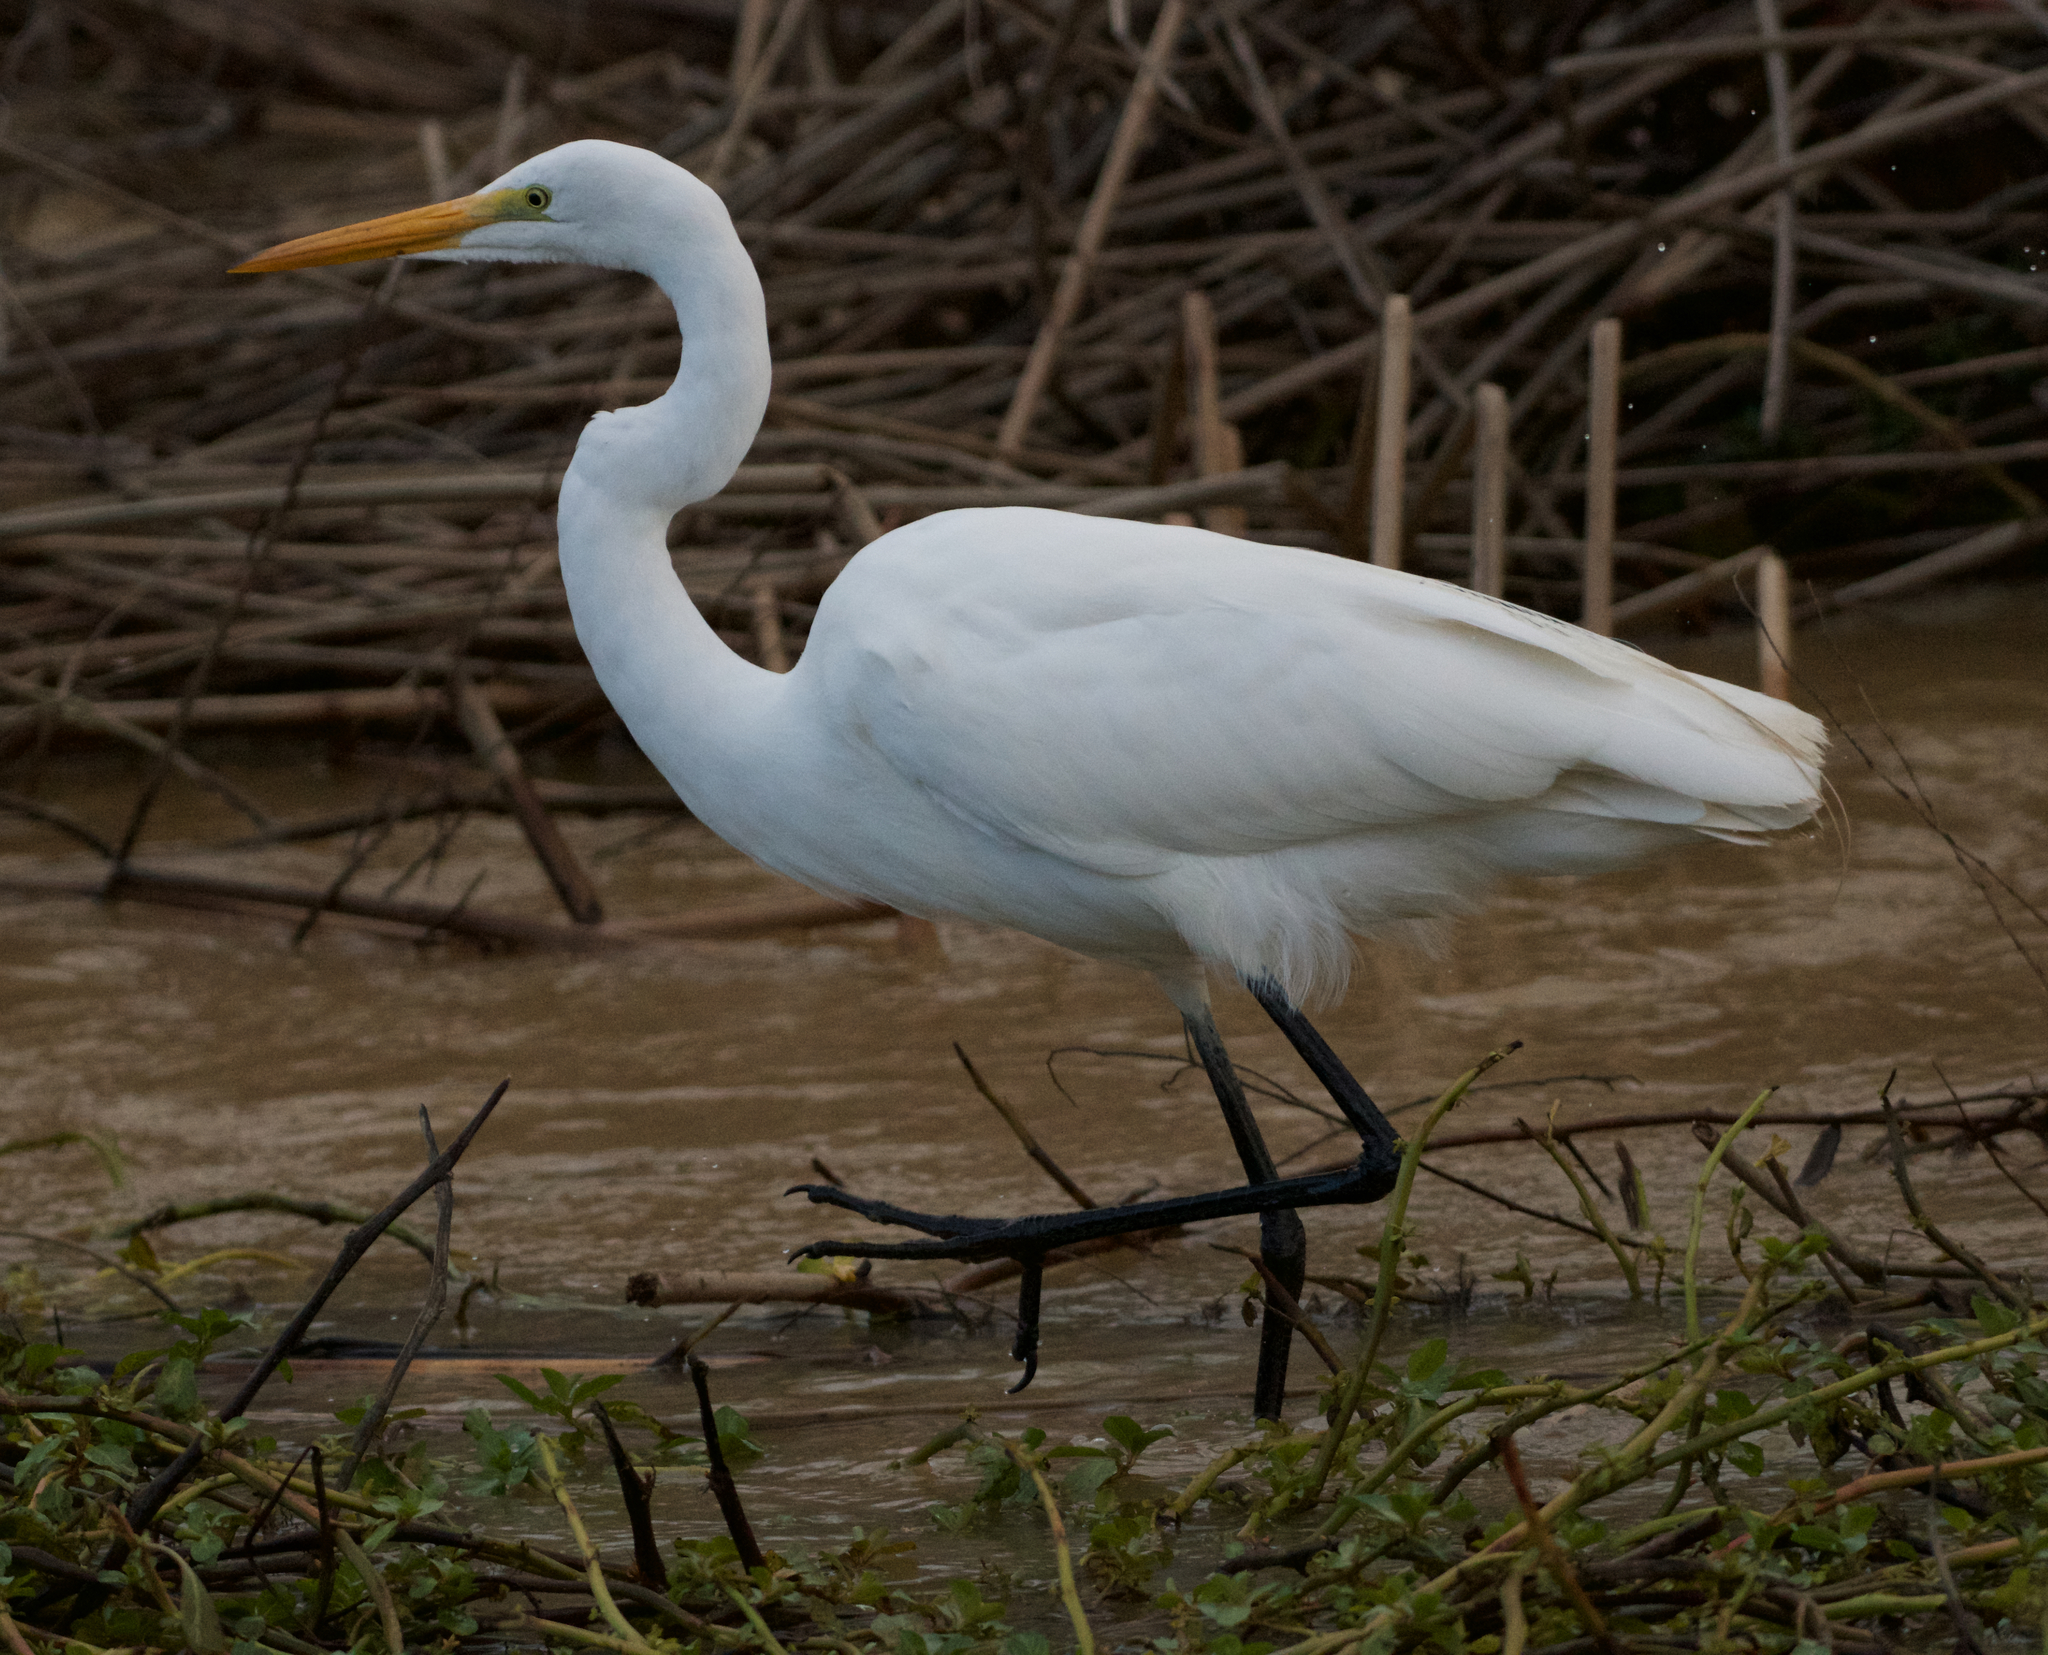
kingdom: Animalia
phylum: Chordata
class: Aves
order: Pelecaniformes
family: Ardeidae
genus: Ardea
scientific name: Ardea alba
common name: Great egret
